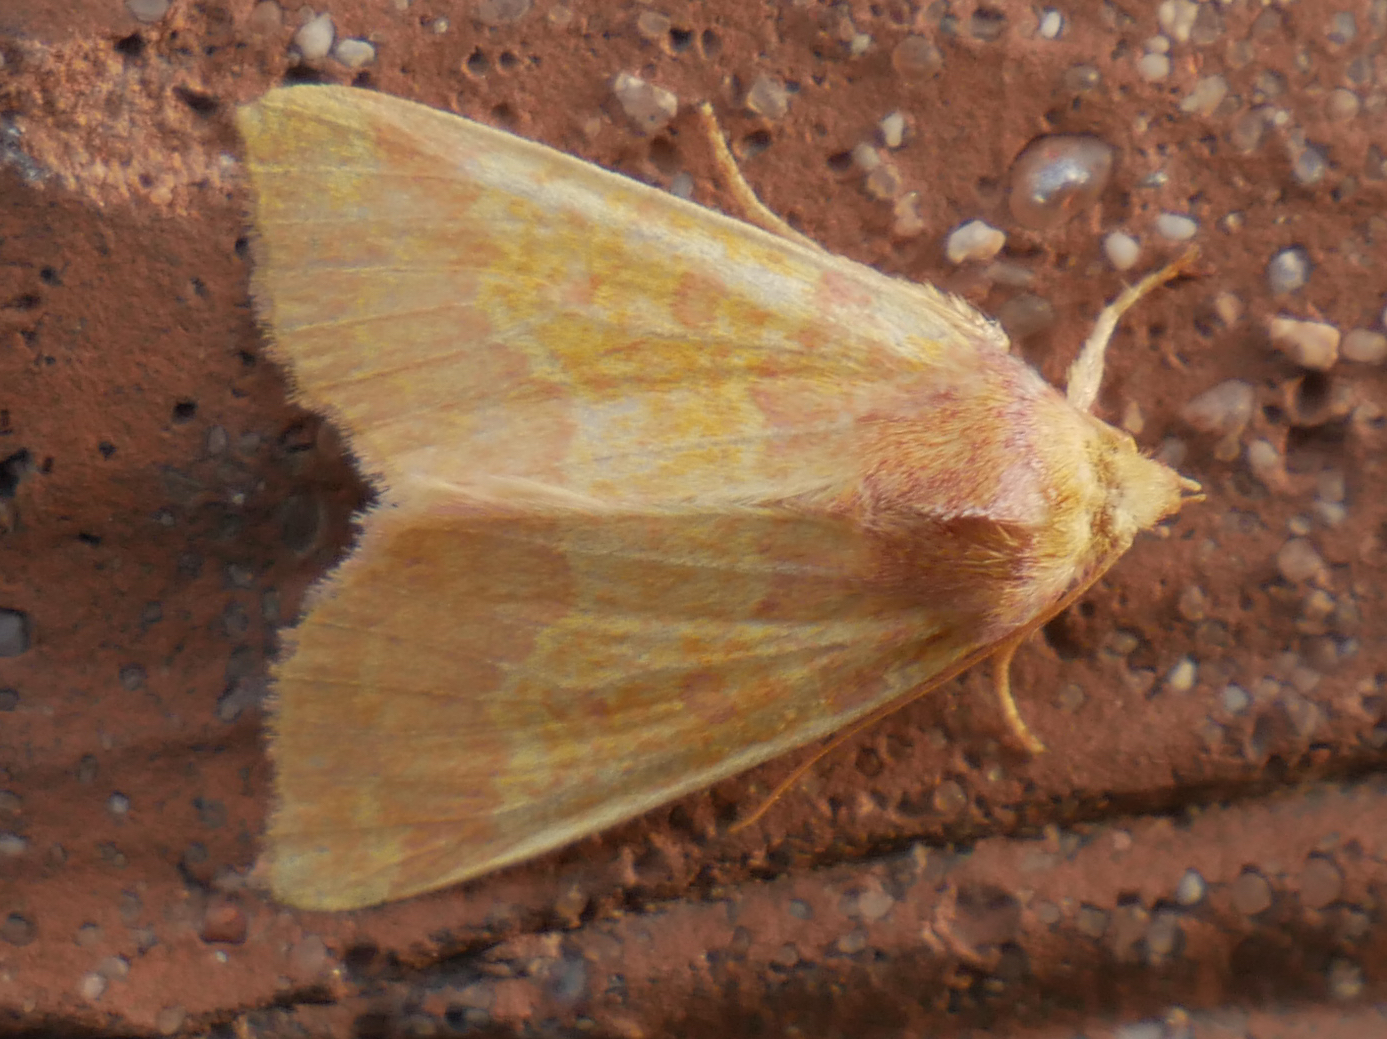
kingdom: Animalia
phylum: Arthropoda
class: Insecta
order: Lepidoptera
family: Noctuidae
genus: Tiliacea
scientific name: Tiliacea aurago
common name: Barred sallow
